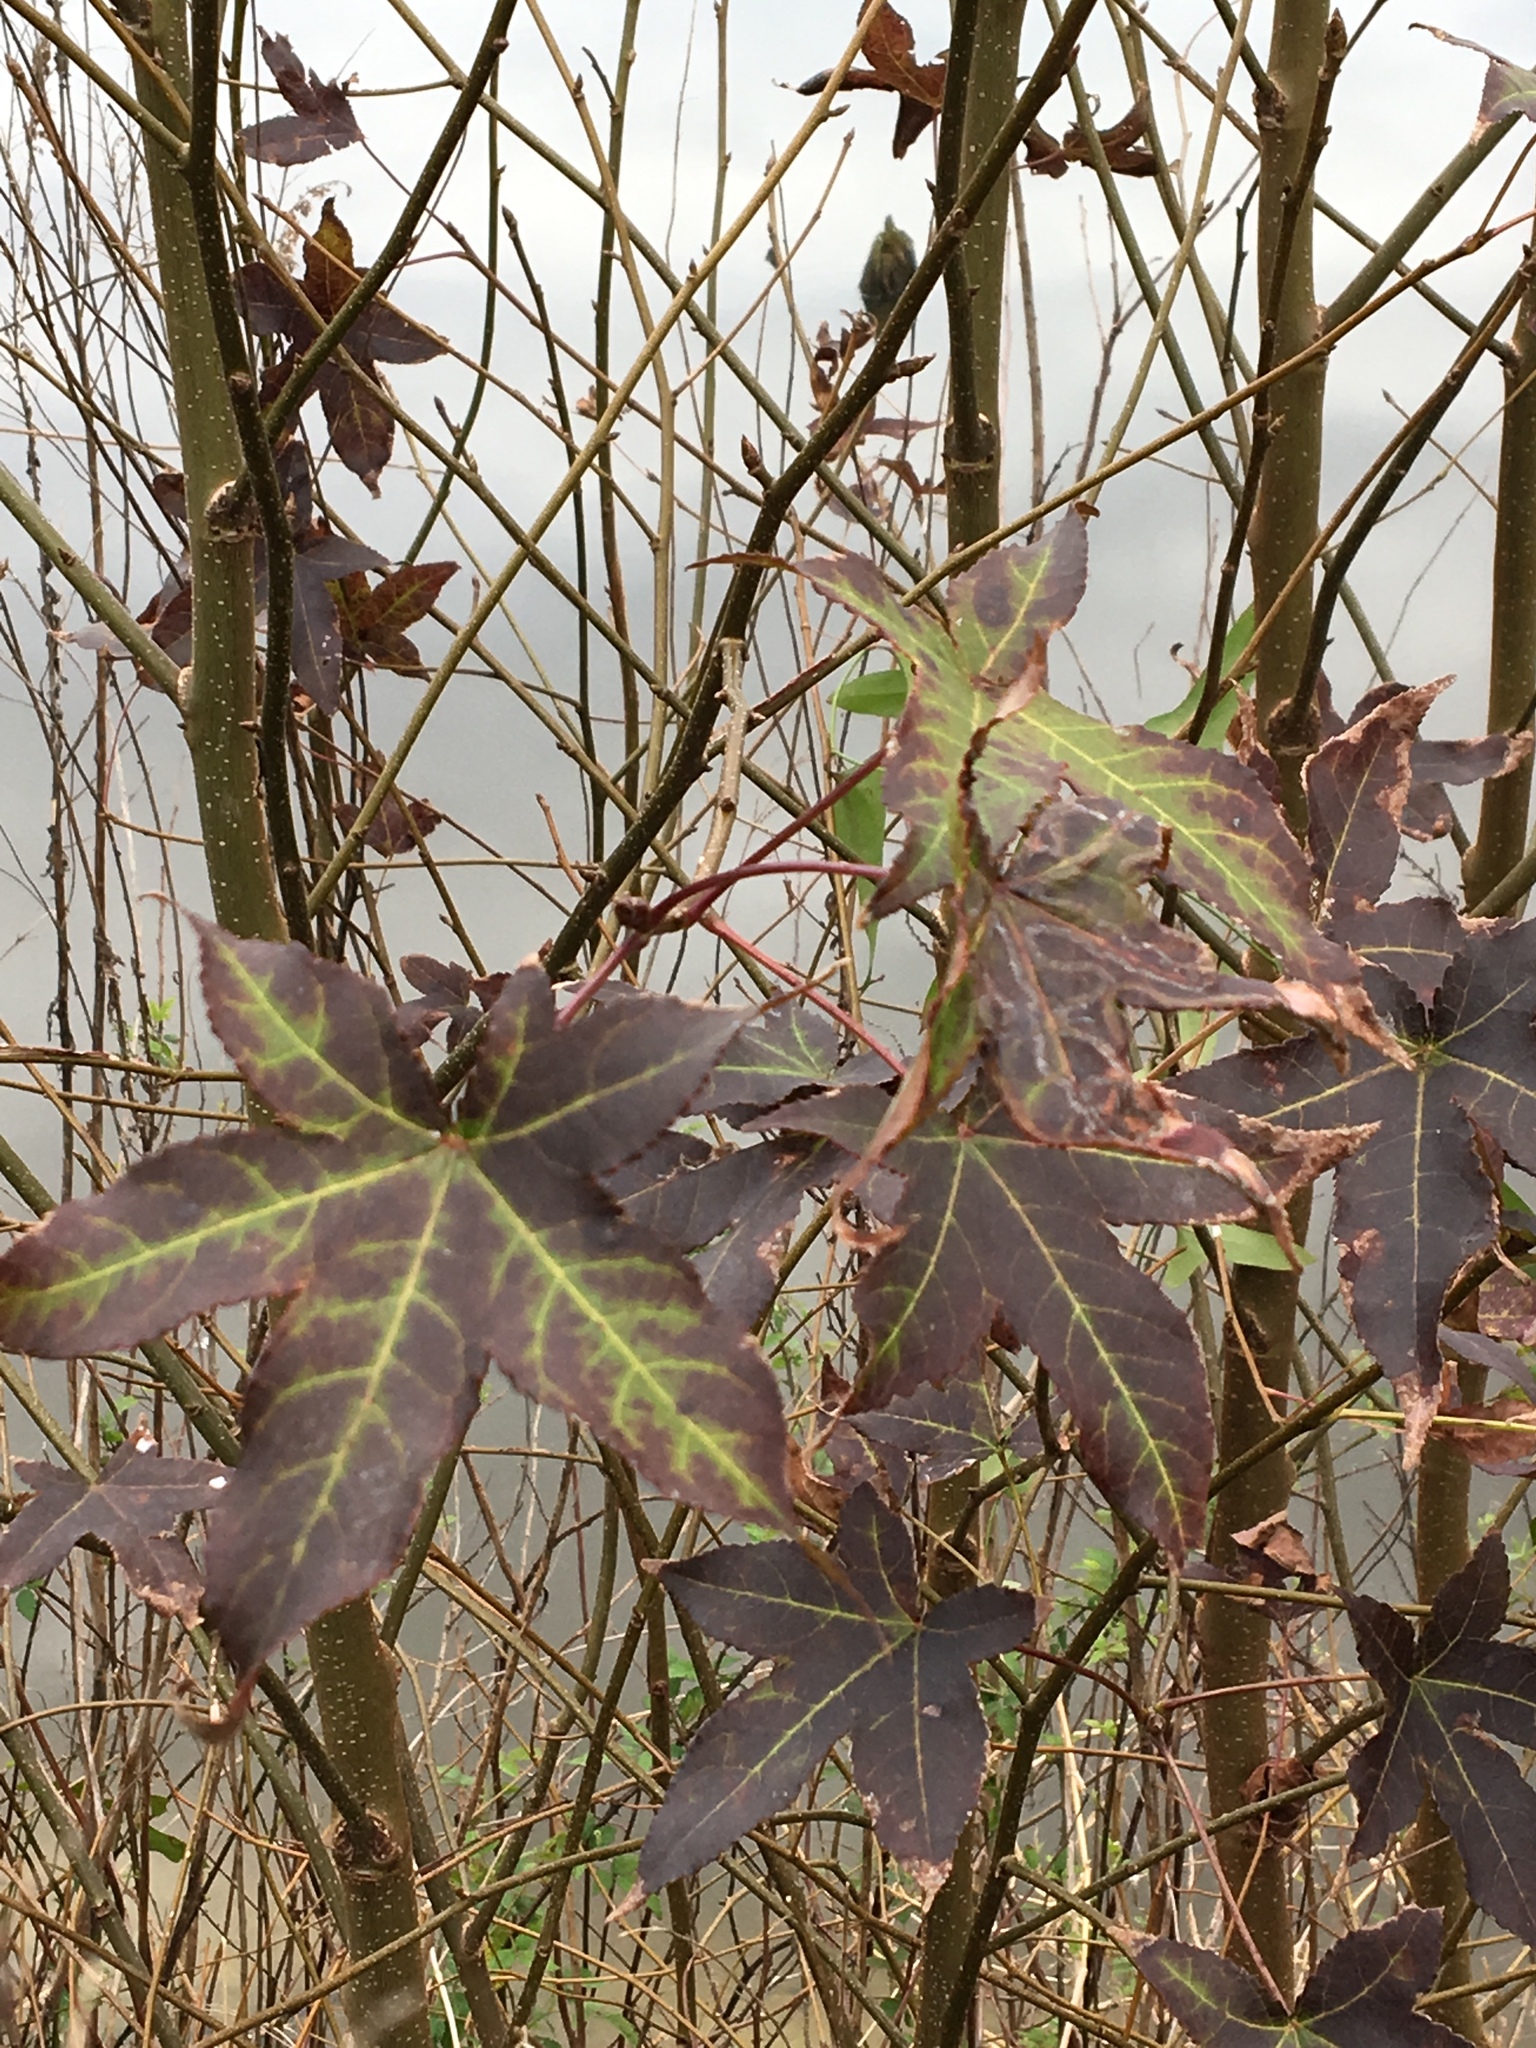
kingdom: Plantae
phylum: Tracheophyta
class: Magnoliopsida
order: Saxifragales
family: Altingiaceae
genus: Liquidambar
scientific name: Liquidambar styraciflua
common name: Sweet gum
